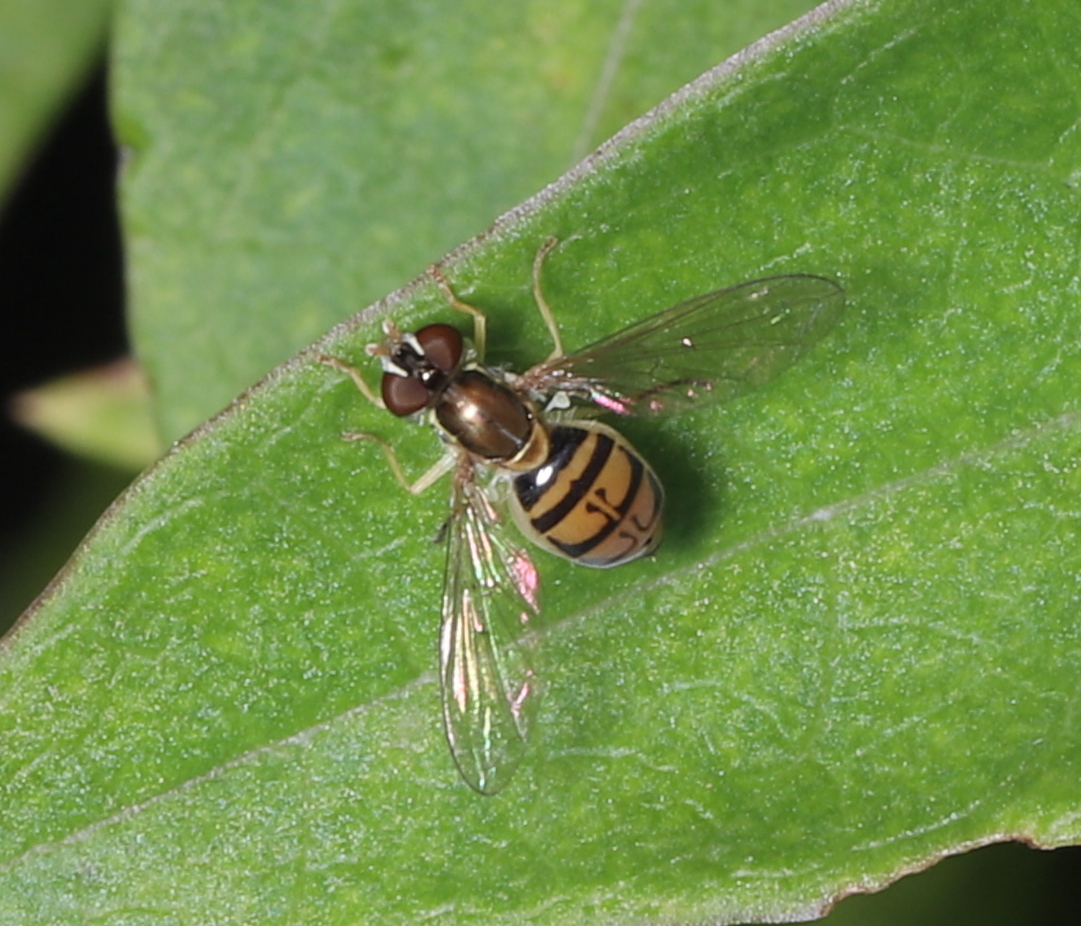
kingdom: Animalia
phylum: Arthropoda
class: Insecta
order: Diptera
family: Syrphidae
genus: Toxomerus
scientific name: Toxomerus marginatus
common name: Syrphid fly
